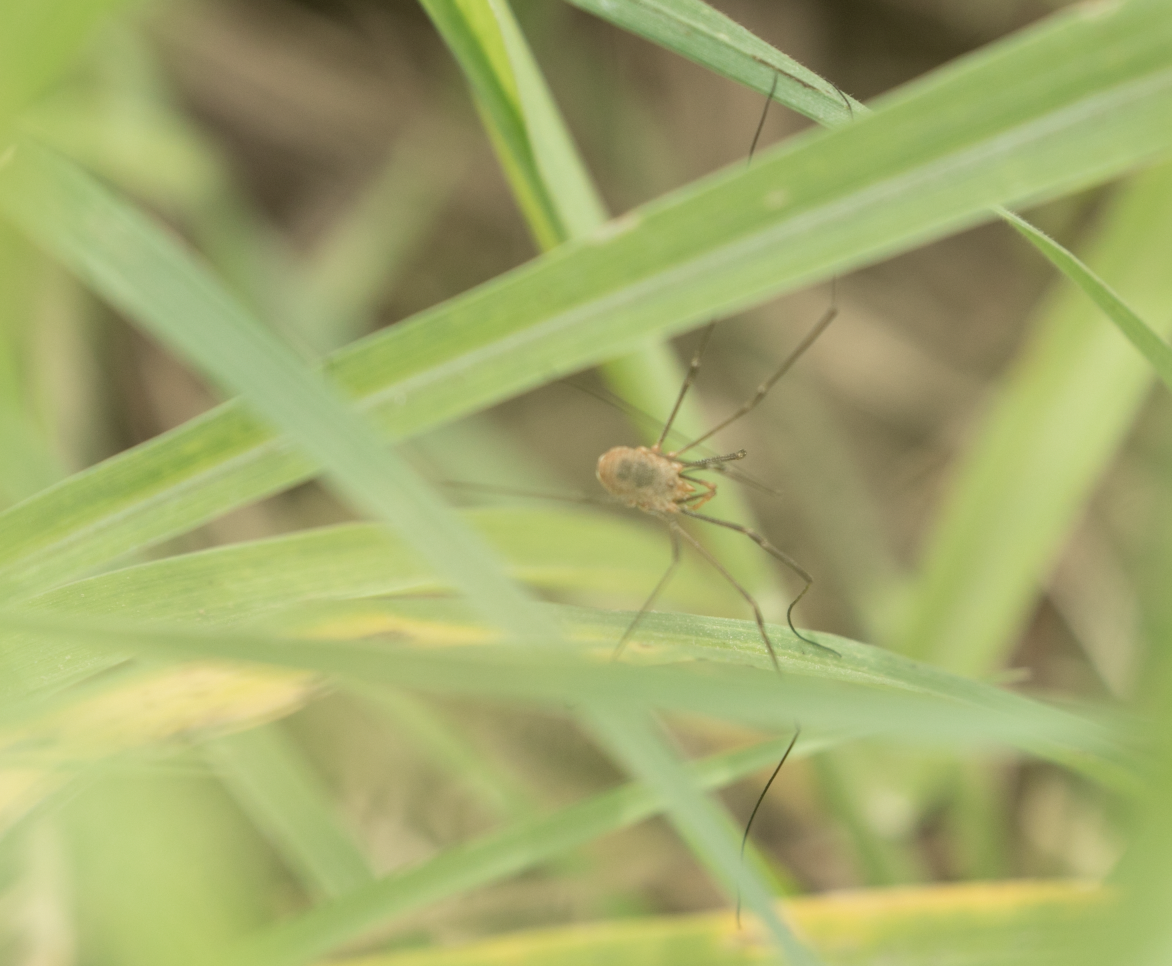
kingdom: Animalia
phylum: Arthropoda
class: Arachnida
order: Opiliones
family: Phalangiidae
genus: Phalangium
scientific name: Phalangium opilio
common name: Daddy longleg
